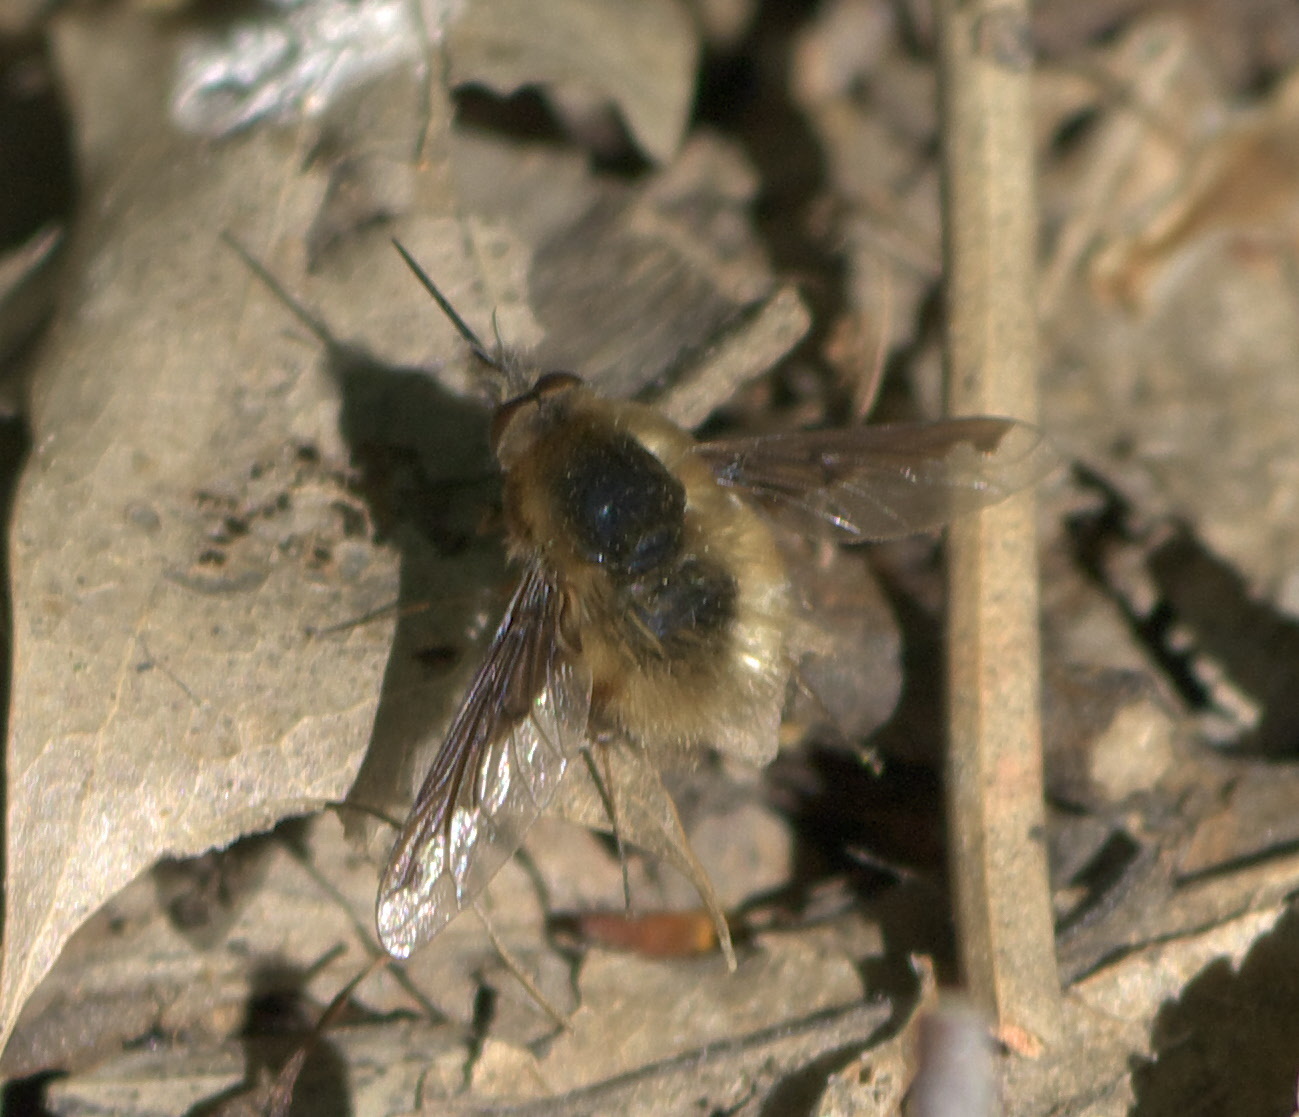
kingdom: Animalia
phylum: Arthropoda
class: Insecta
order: Diptera
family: Bombyliidae
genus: Bombylius
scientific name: Bombylius major
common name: Bee fly
